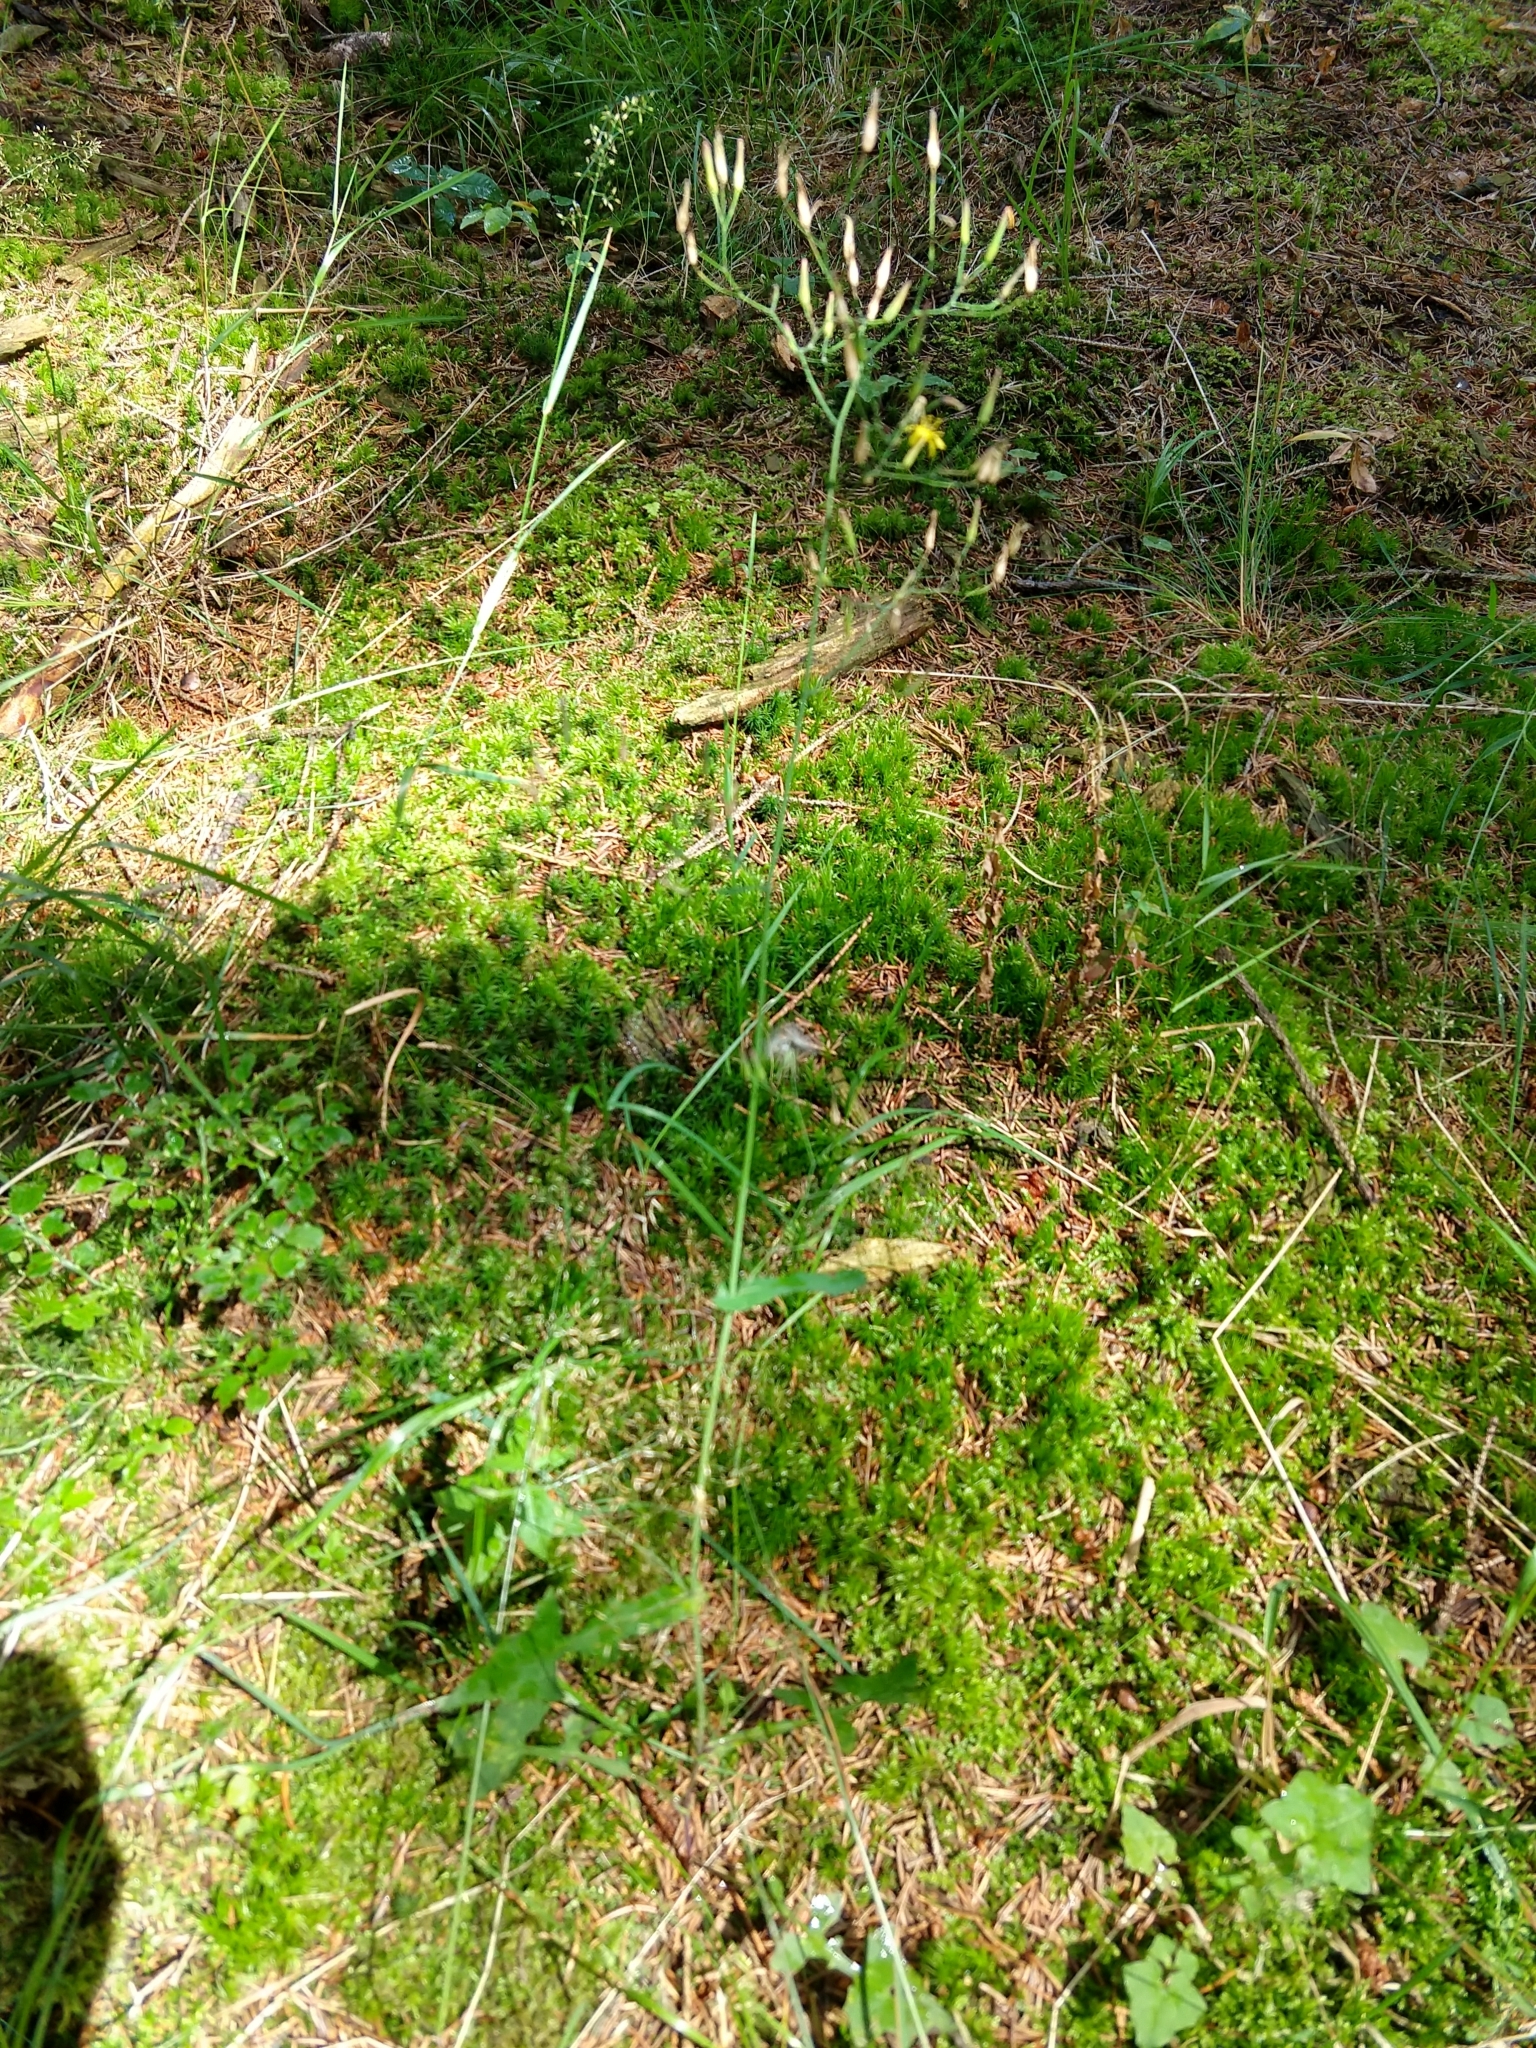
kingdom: Plantae
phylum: Tracheophyta
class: Magnoliopsida
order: Asterales
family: Asteraceae
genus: Mycelis
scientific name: Mycelis muralis
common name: Wall lettuce
